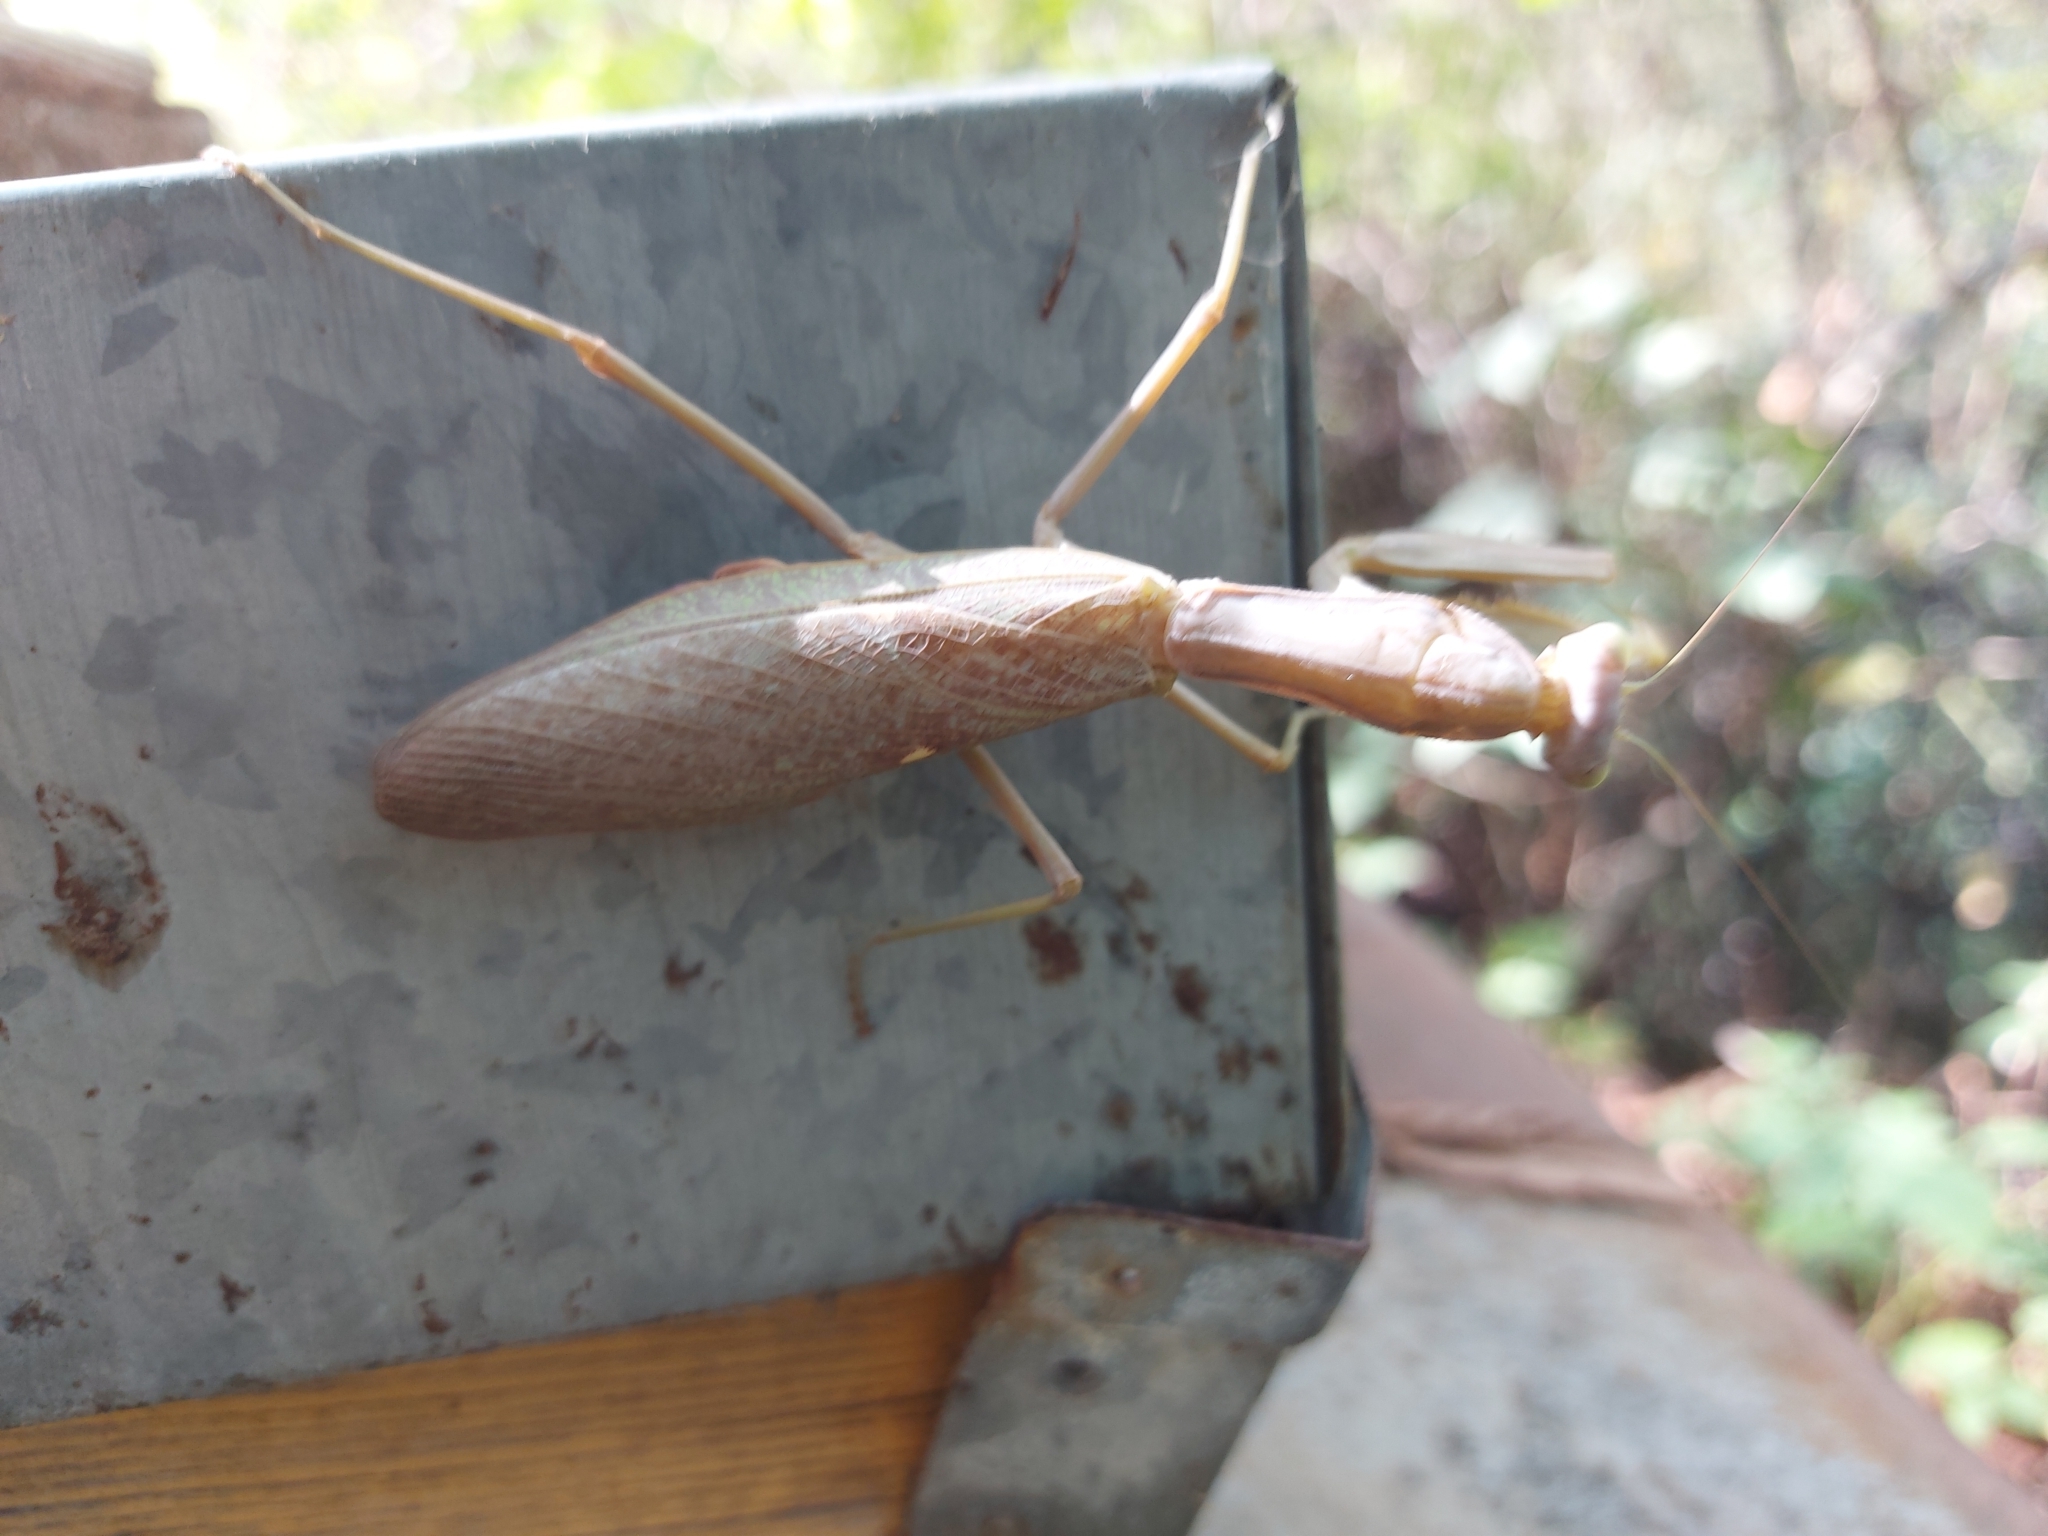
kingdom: Animalia
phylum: Arthropoda
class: Insecta
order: Mantodea
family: Mantidae
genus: Hierodula
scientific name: Hierodula transcaucasica
